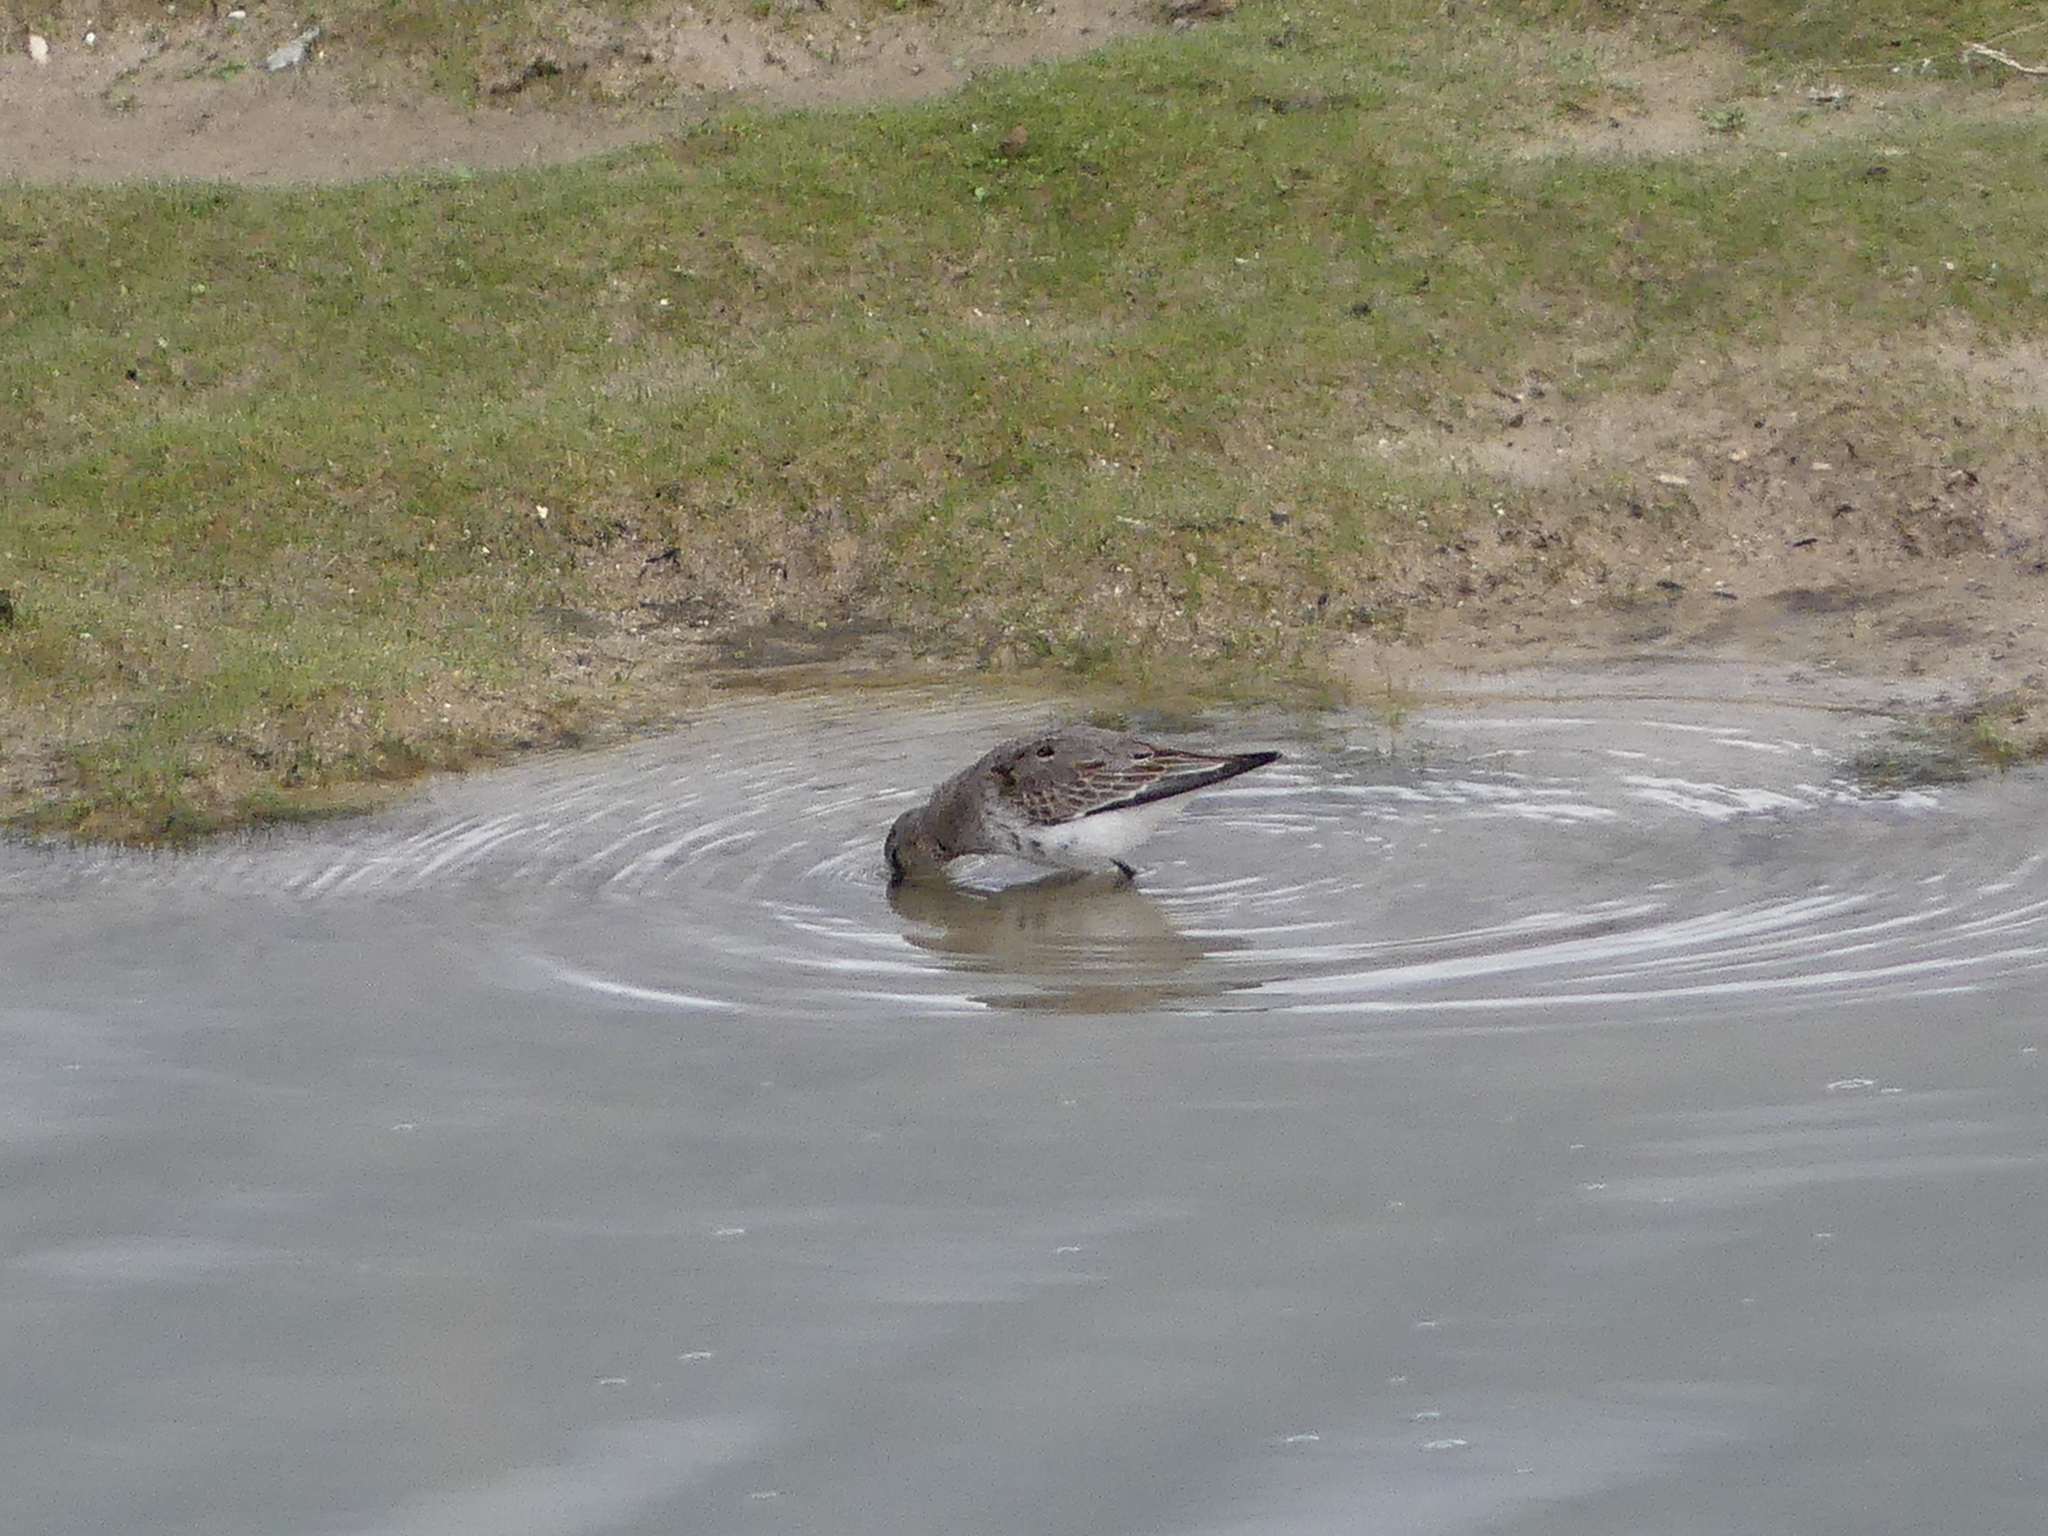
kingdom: Animalia
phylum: Chordata
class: Aves
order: Charadriiformes
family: Scolopacidae
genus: Calidris
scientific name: Calidris alpina
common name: Dunlin
